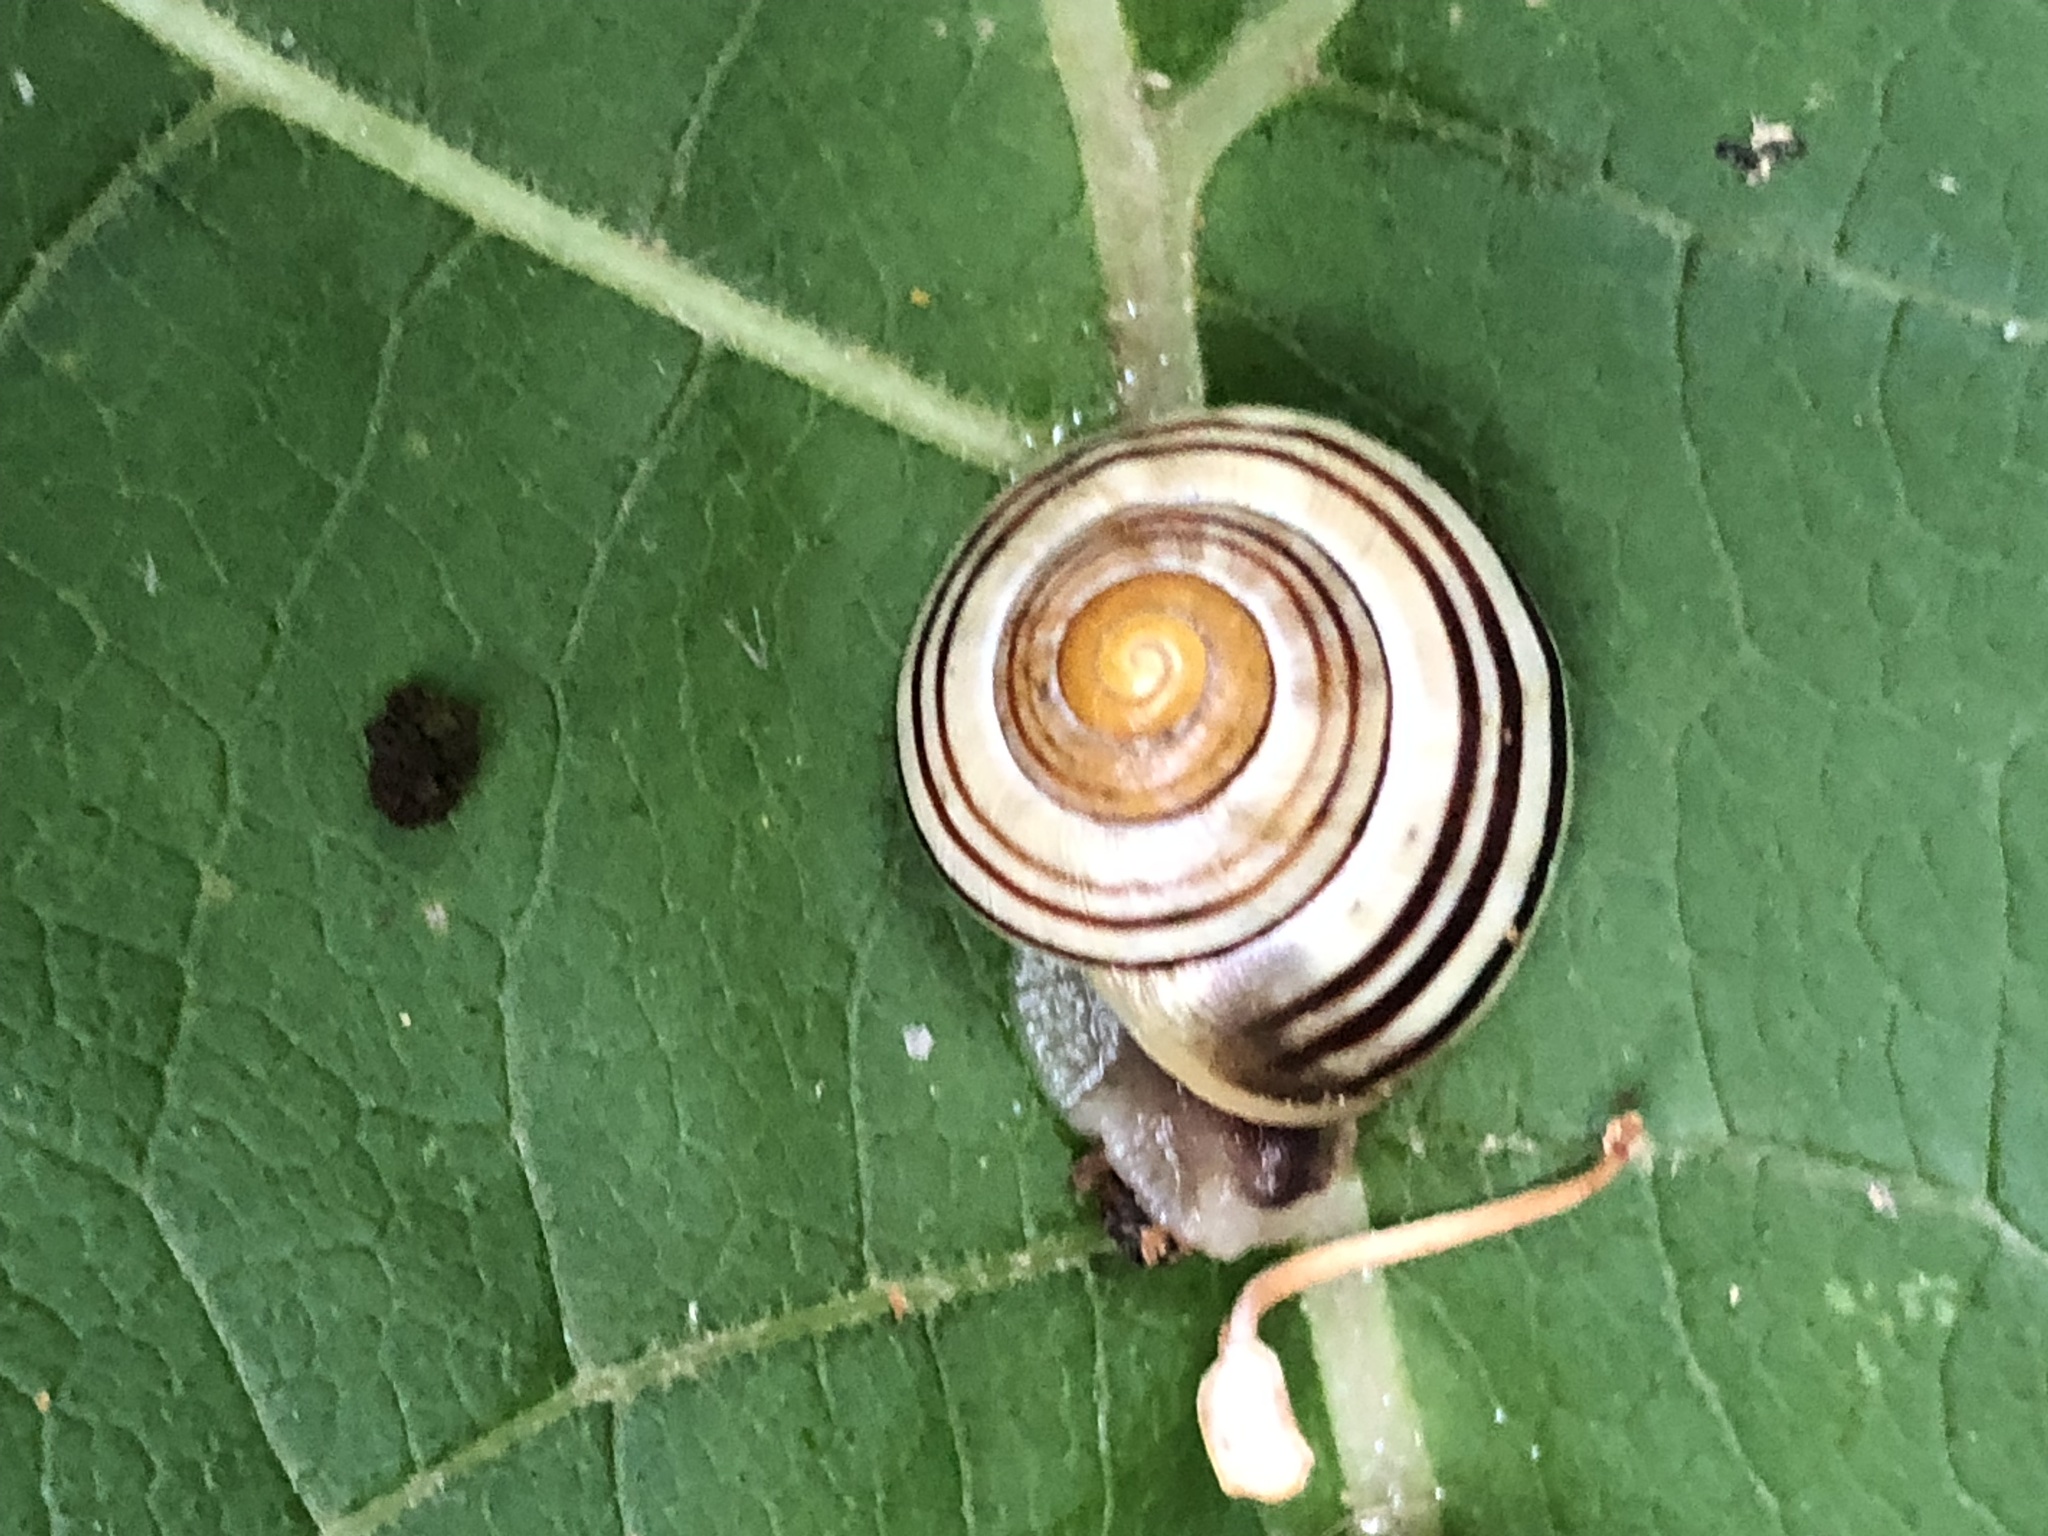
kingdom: Animalia
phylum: Mollusca
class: Gastropoda
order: Stylommatophora
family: Helicidae
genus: Cepaea
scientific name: Cepaea
